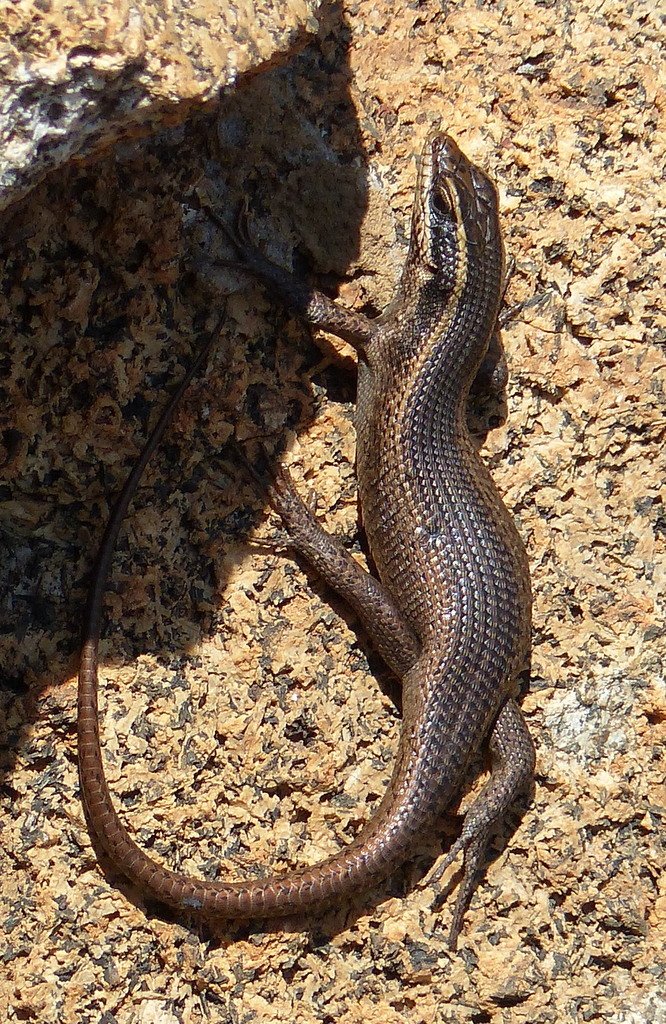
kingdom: Animalia
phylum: Chordata
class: Squamata
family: Scincidae
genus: Trachylepis
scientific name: Trachylepis punctatissima
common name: Montane speckled skink
